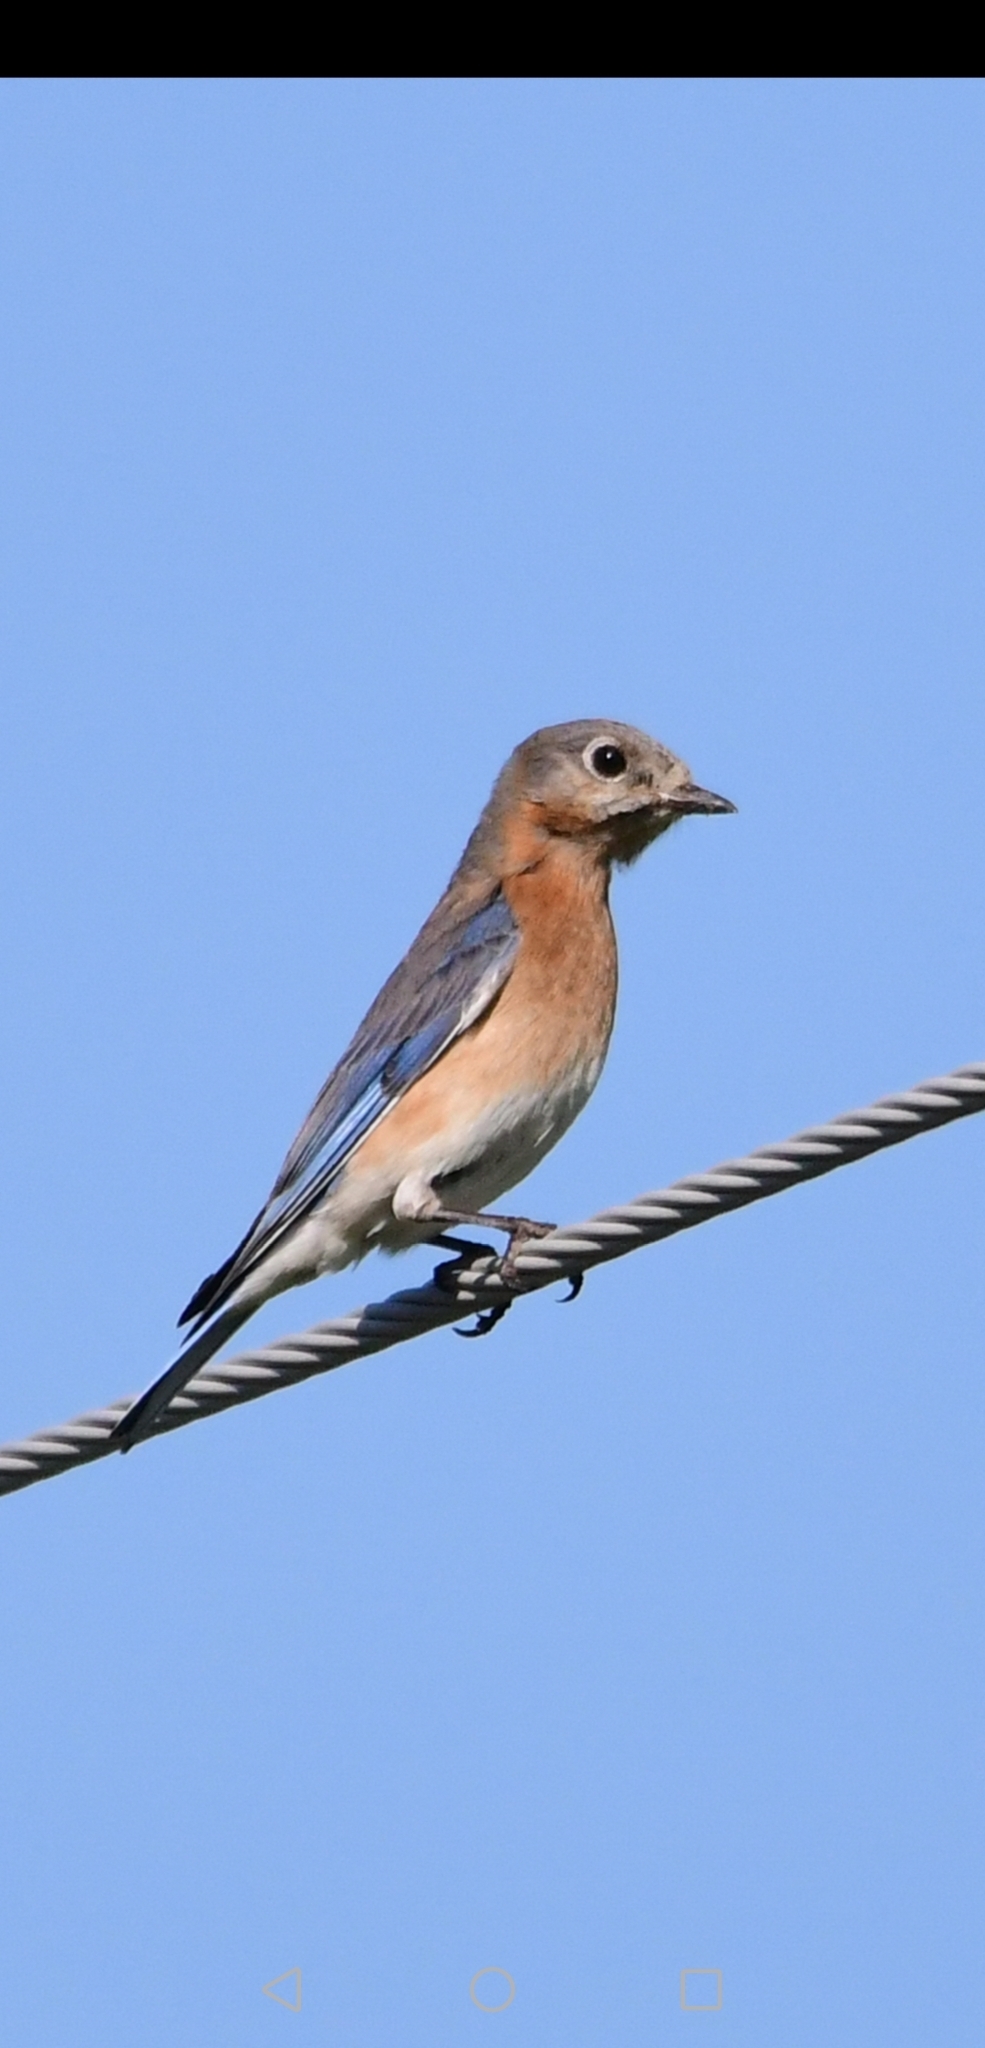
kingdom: Animalia
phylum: Chordata
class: Aves
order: Passeriformes
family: Turdidae
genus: Sialia
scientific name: Sialia sialis
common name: Eastern bluebird
